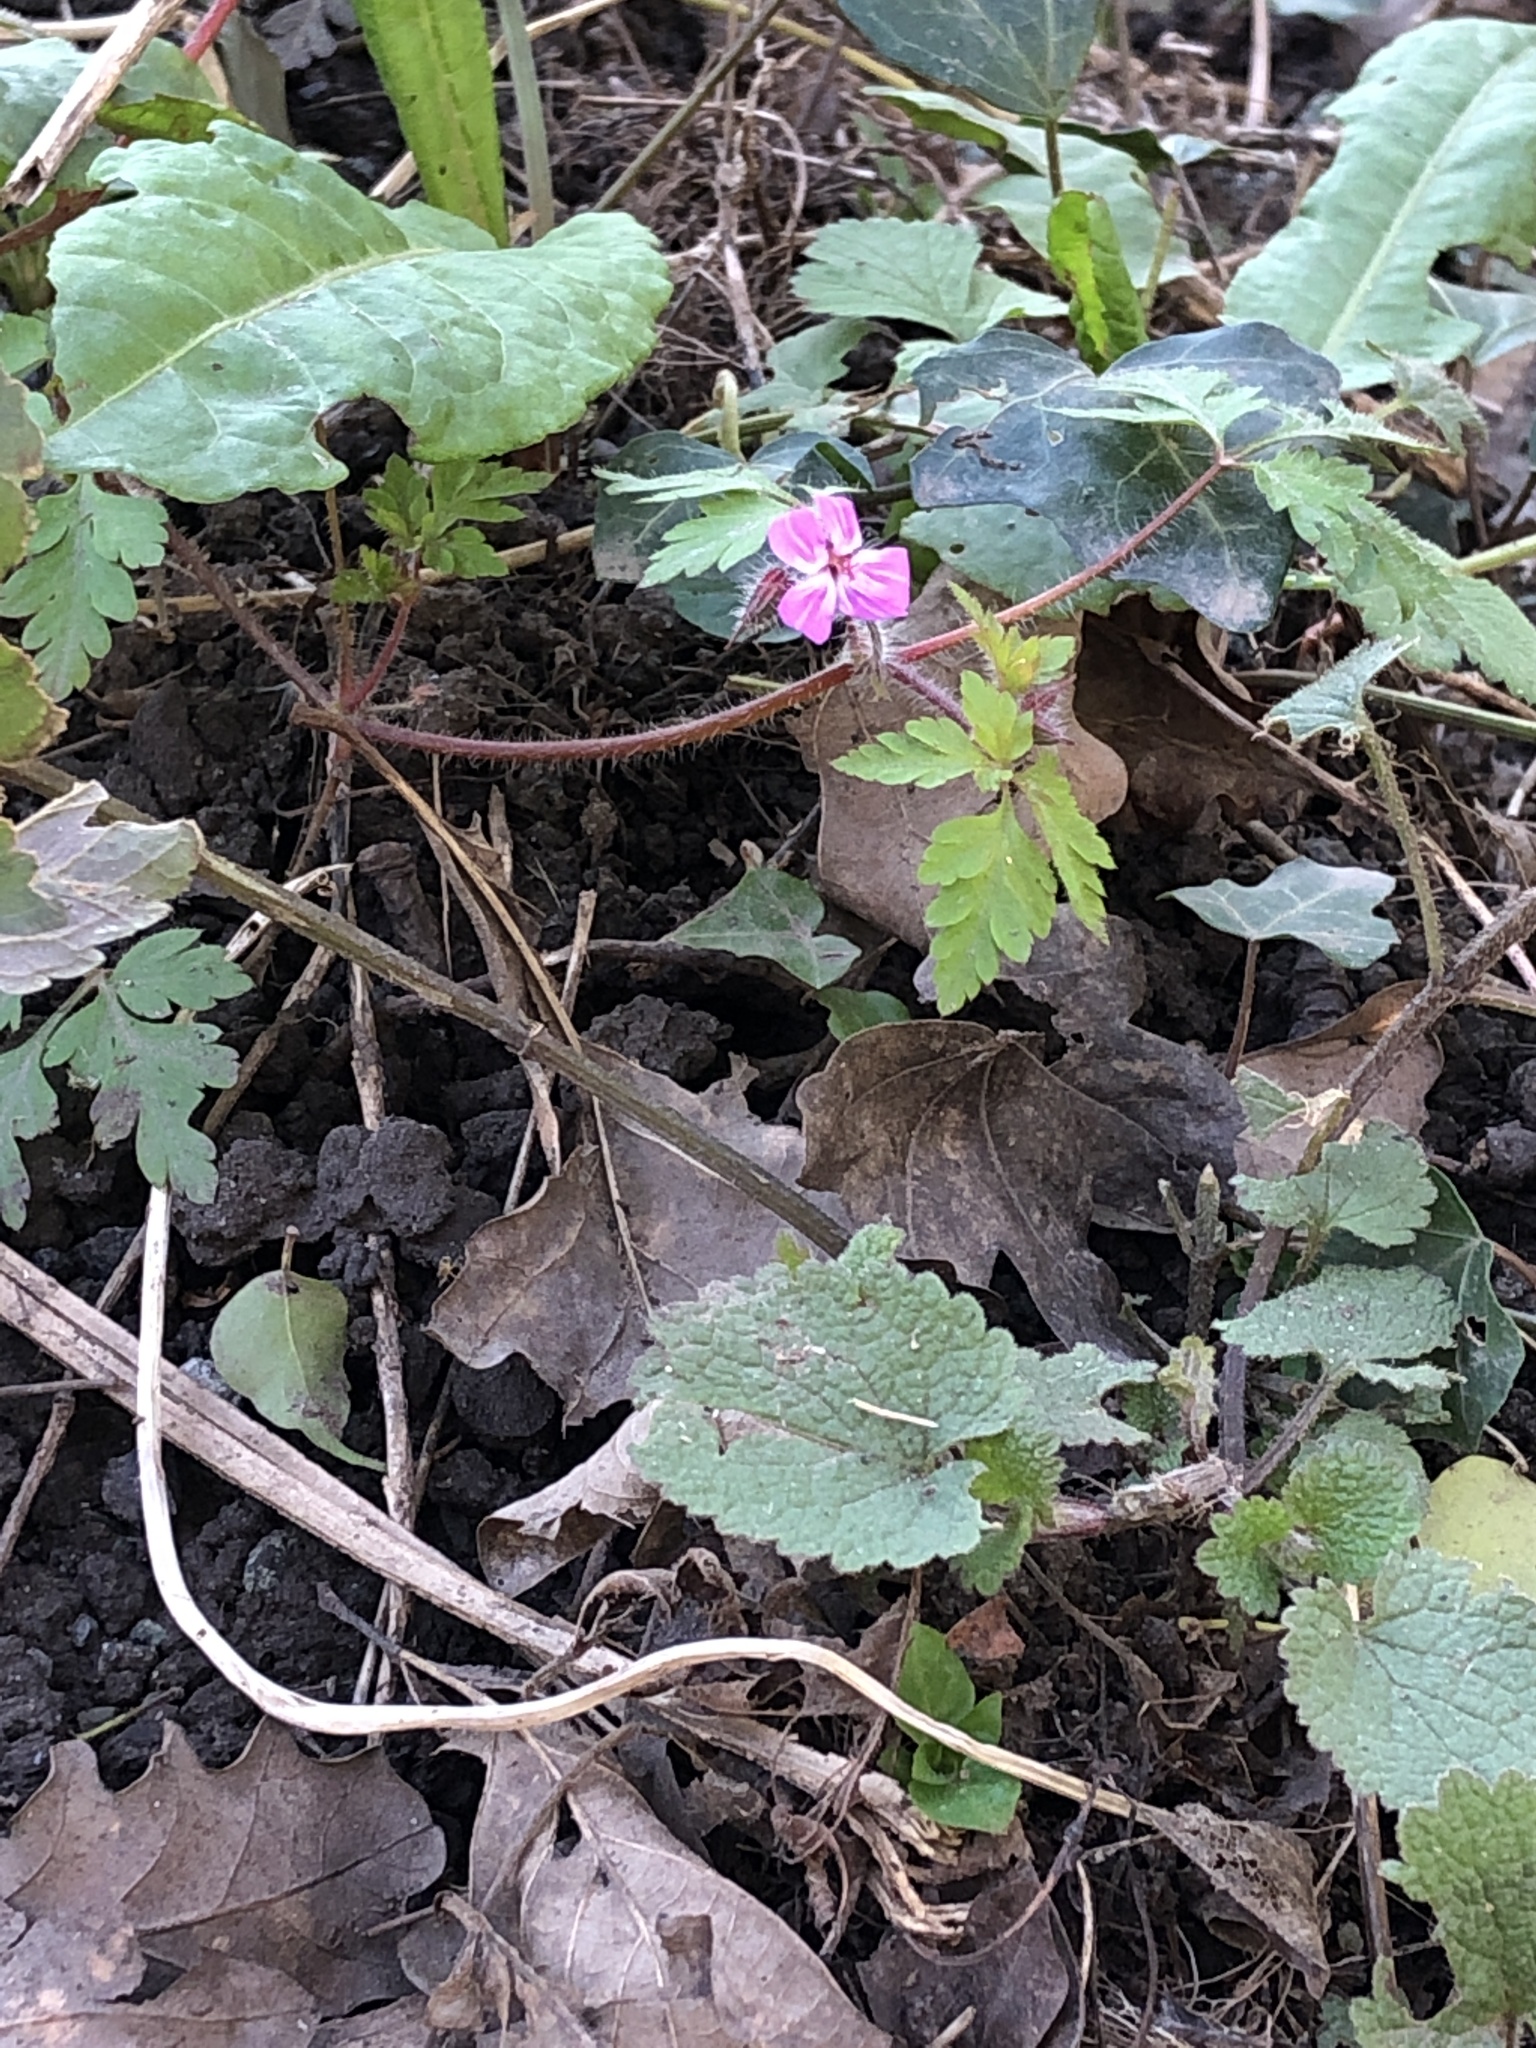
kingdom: Plantae
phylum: Tracheophyta
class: Magnoliopsida
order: Geraniales
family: Geraniaceae
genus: Geranium
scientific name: Geranium robertianum
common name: Herb-robert
